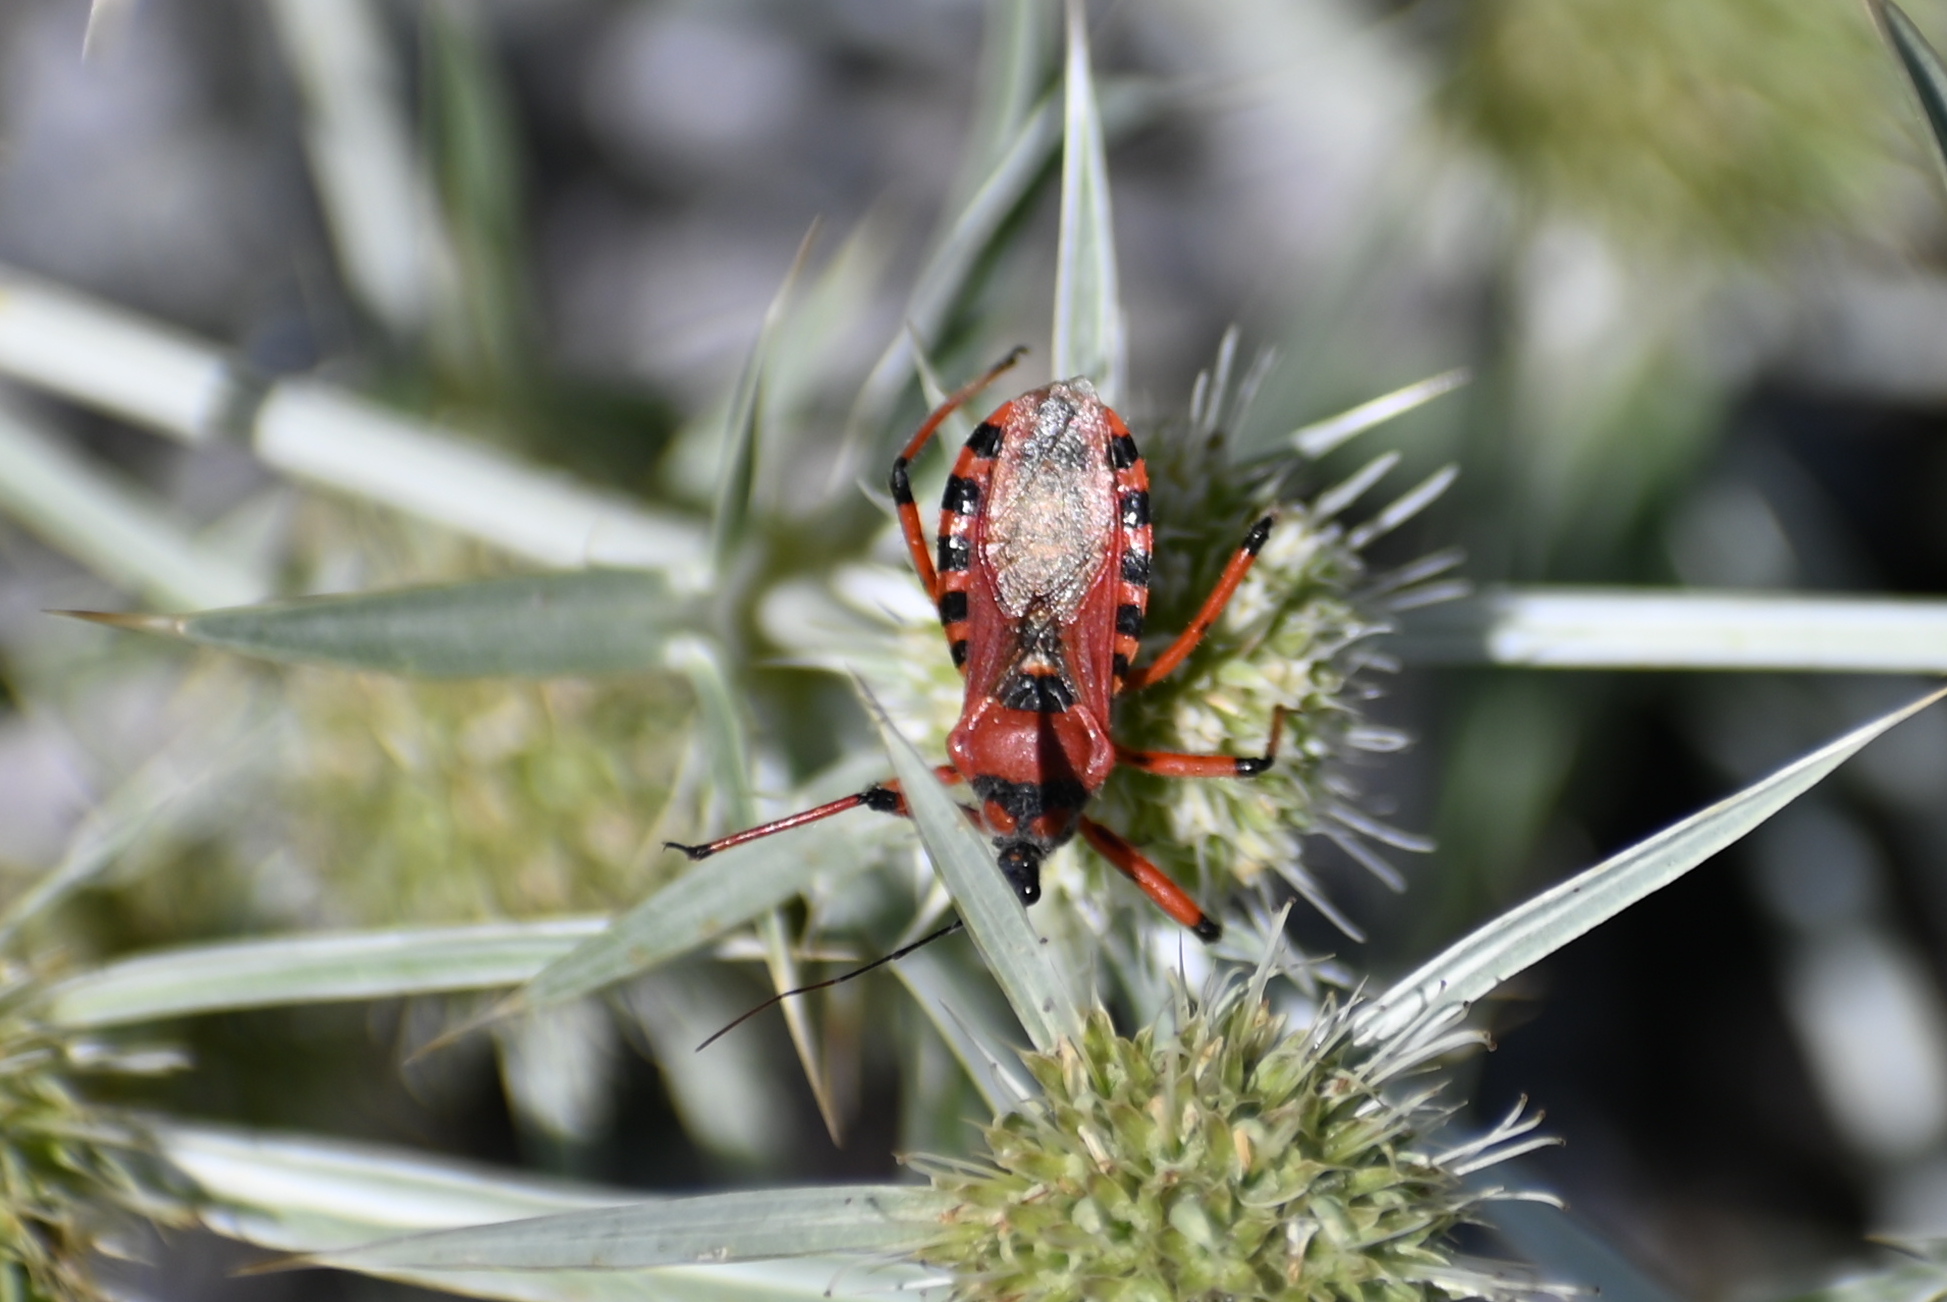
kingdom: Animalia
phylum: Arthropoda
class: Insecta
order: Hemiptera
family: Reduviidae
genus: Rhynocoris
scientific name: Rhynocoris iracundus
